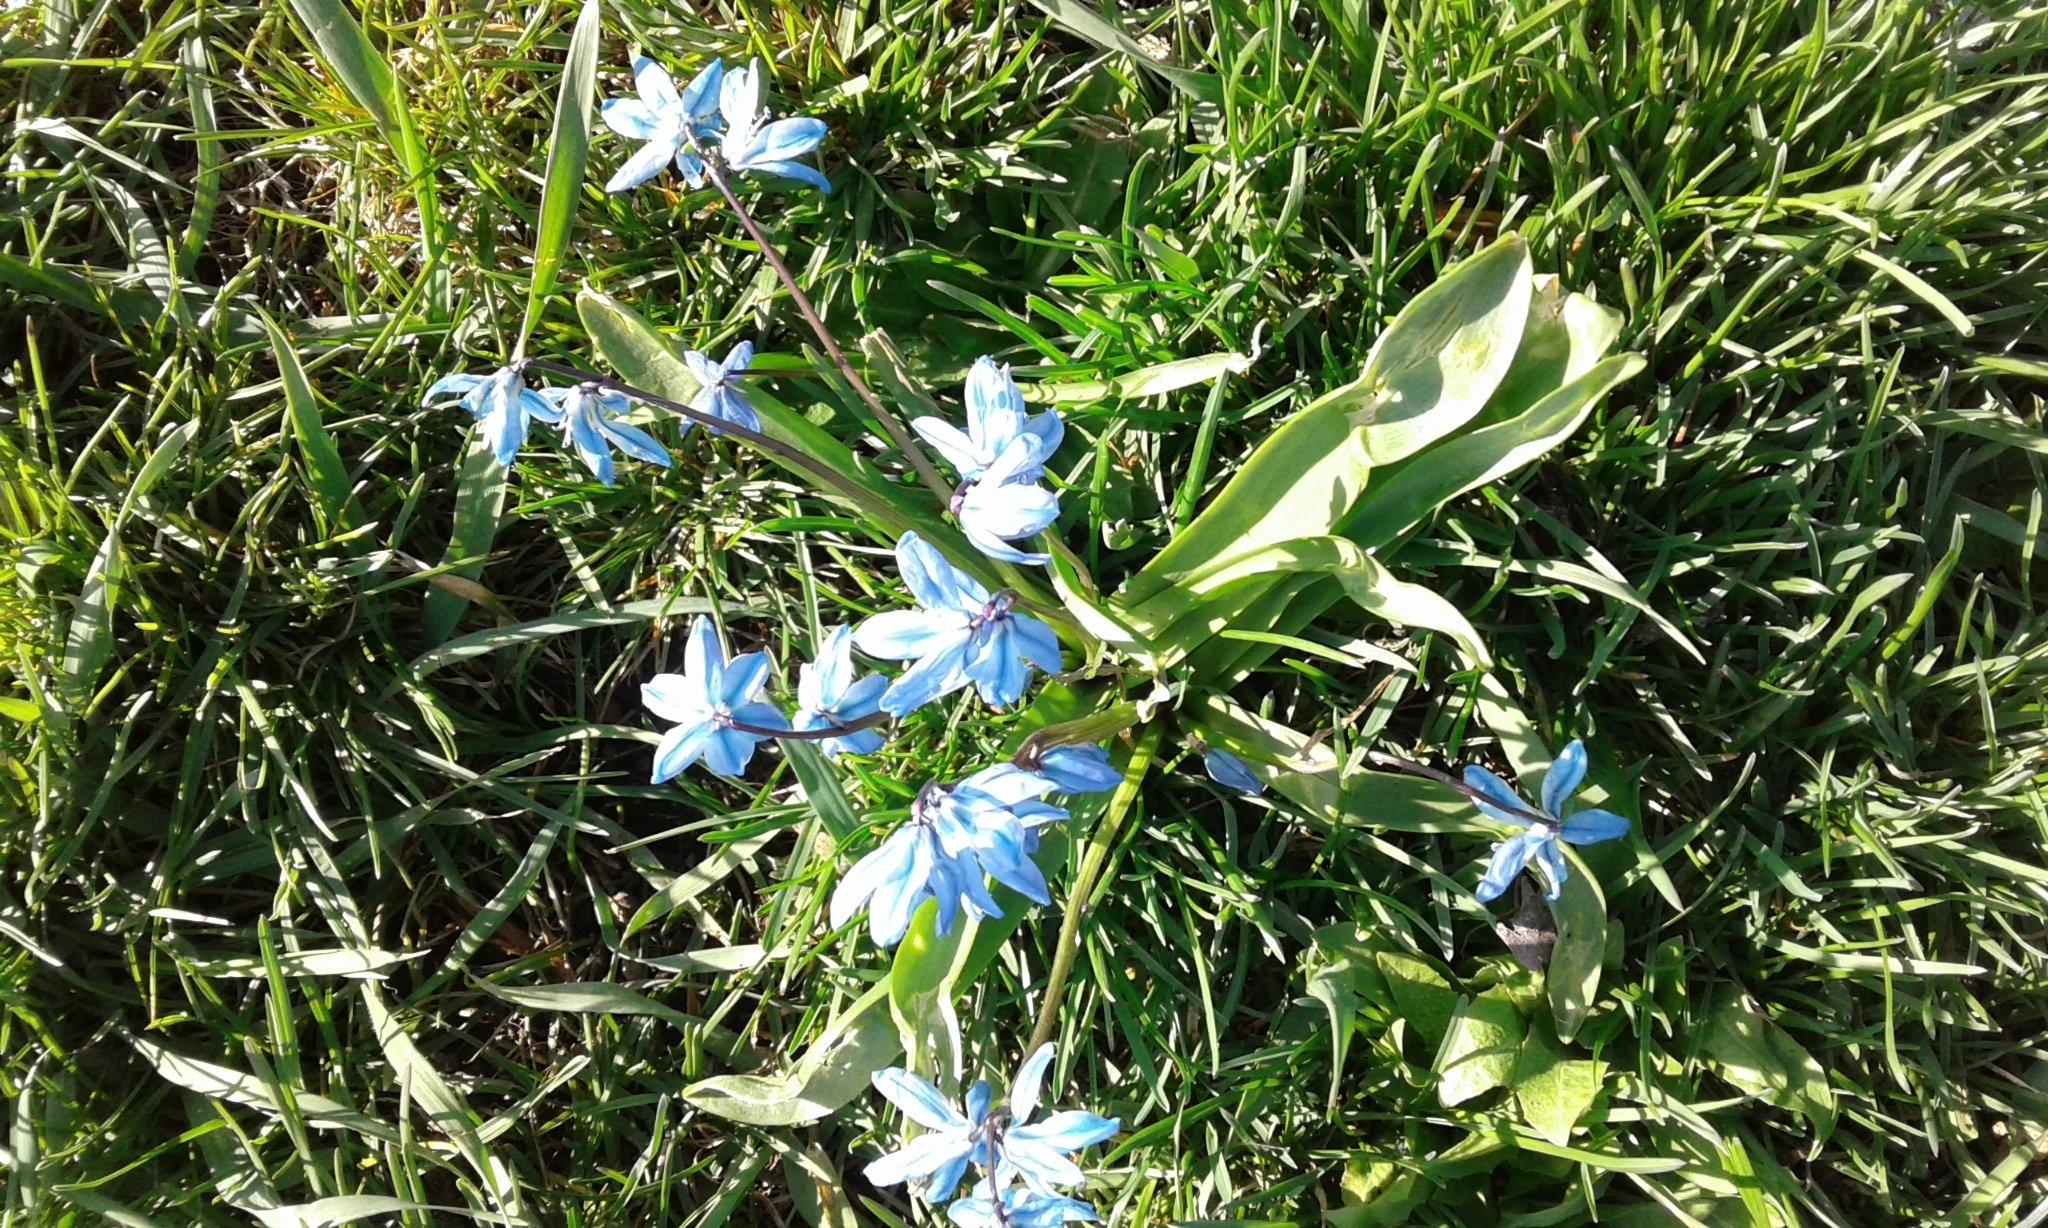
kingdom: Plantae
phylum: Tracheophyta
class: Liliopsida
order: Asparagales
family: Asparagaceae
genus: Scilla
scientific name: Scilla siberica
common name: Siberian squill
